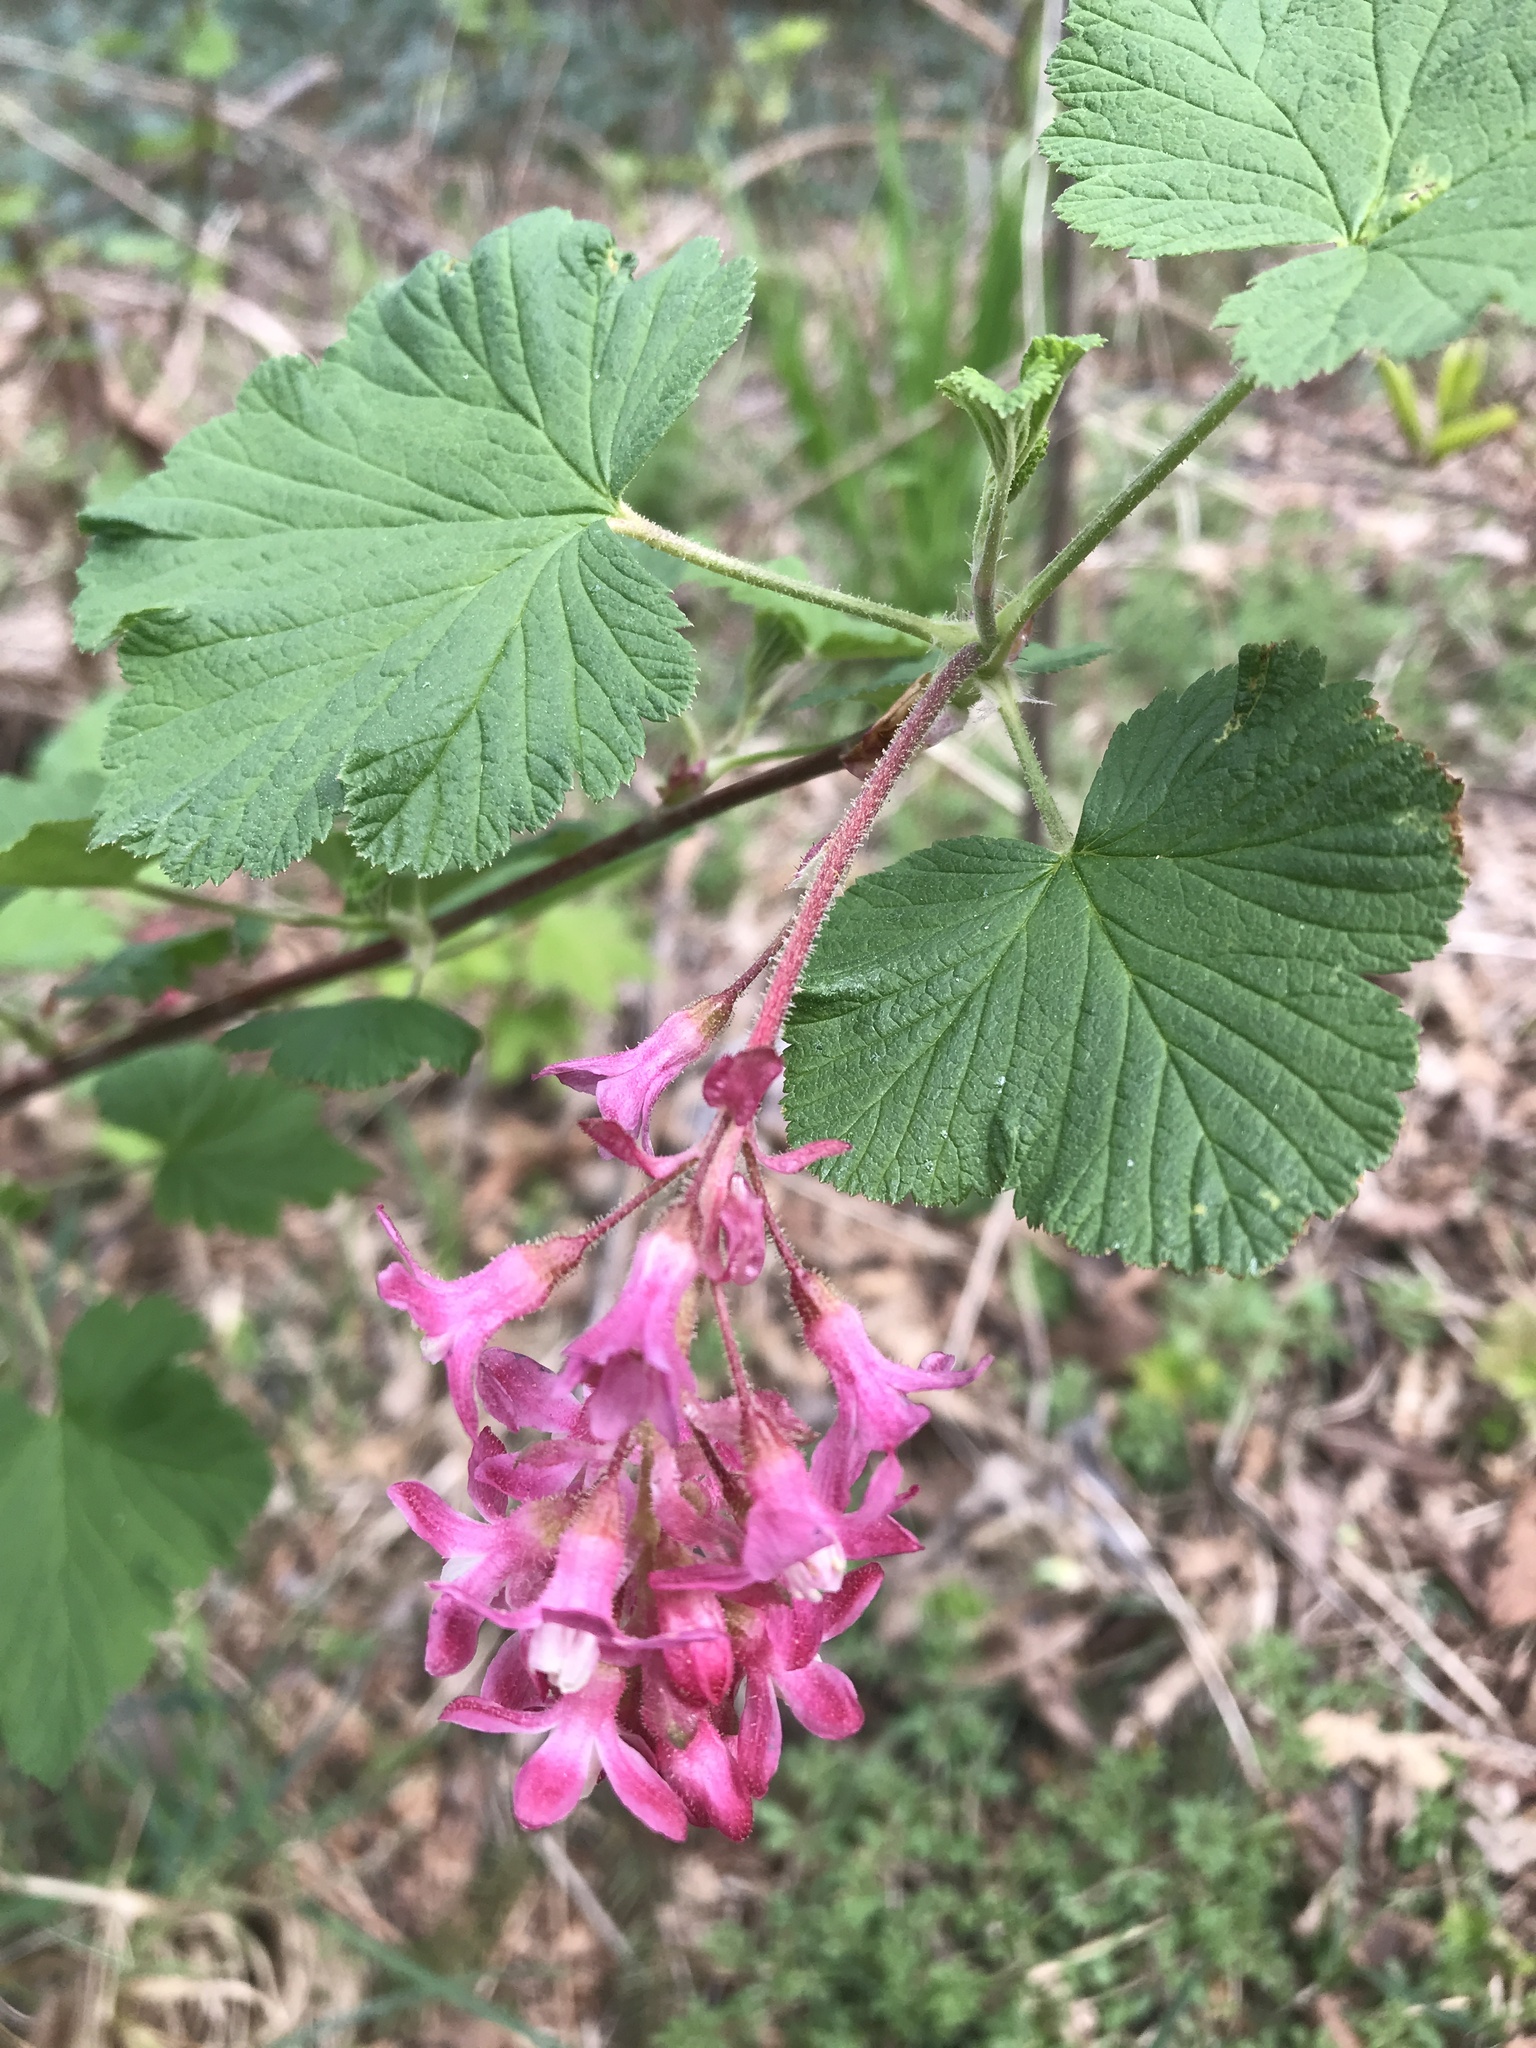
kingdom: Plantae
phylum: Tracheophyta
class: Magnoliopsida
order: Saxifragales
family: Grossulariaceae
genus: Ribes
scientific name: Ribes sanguineum
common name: Flowering currant
